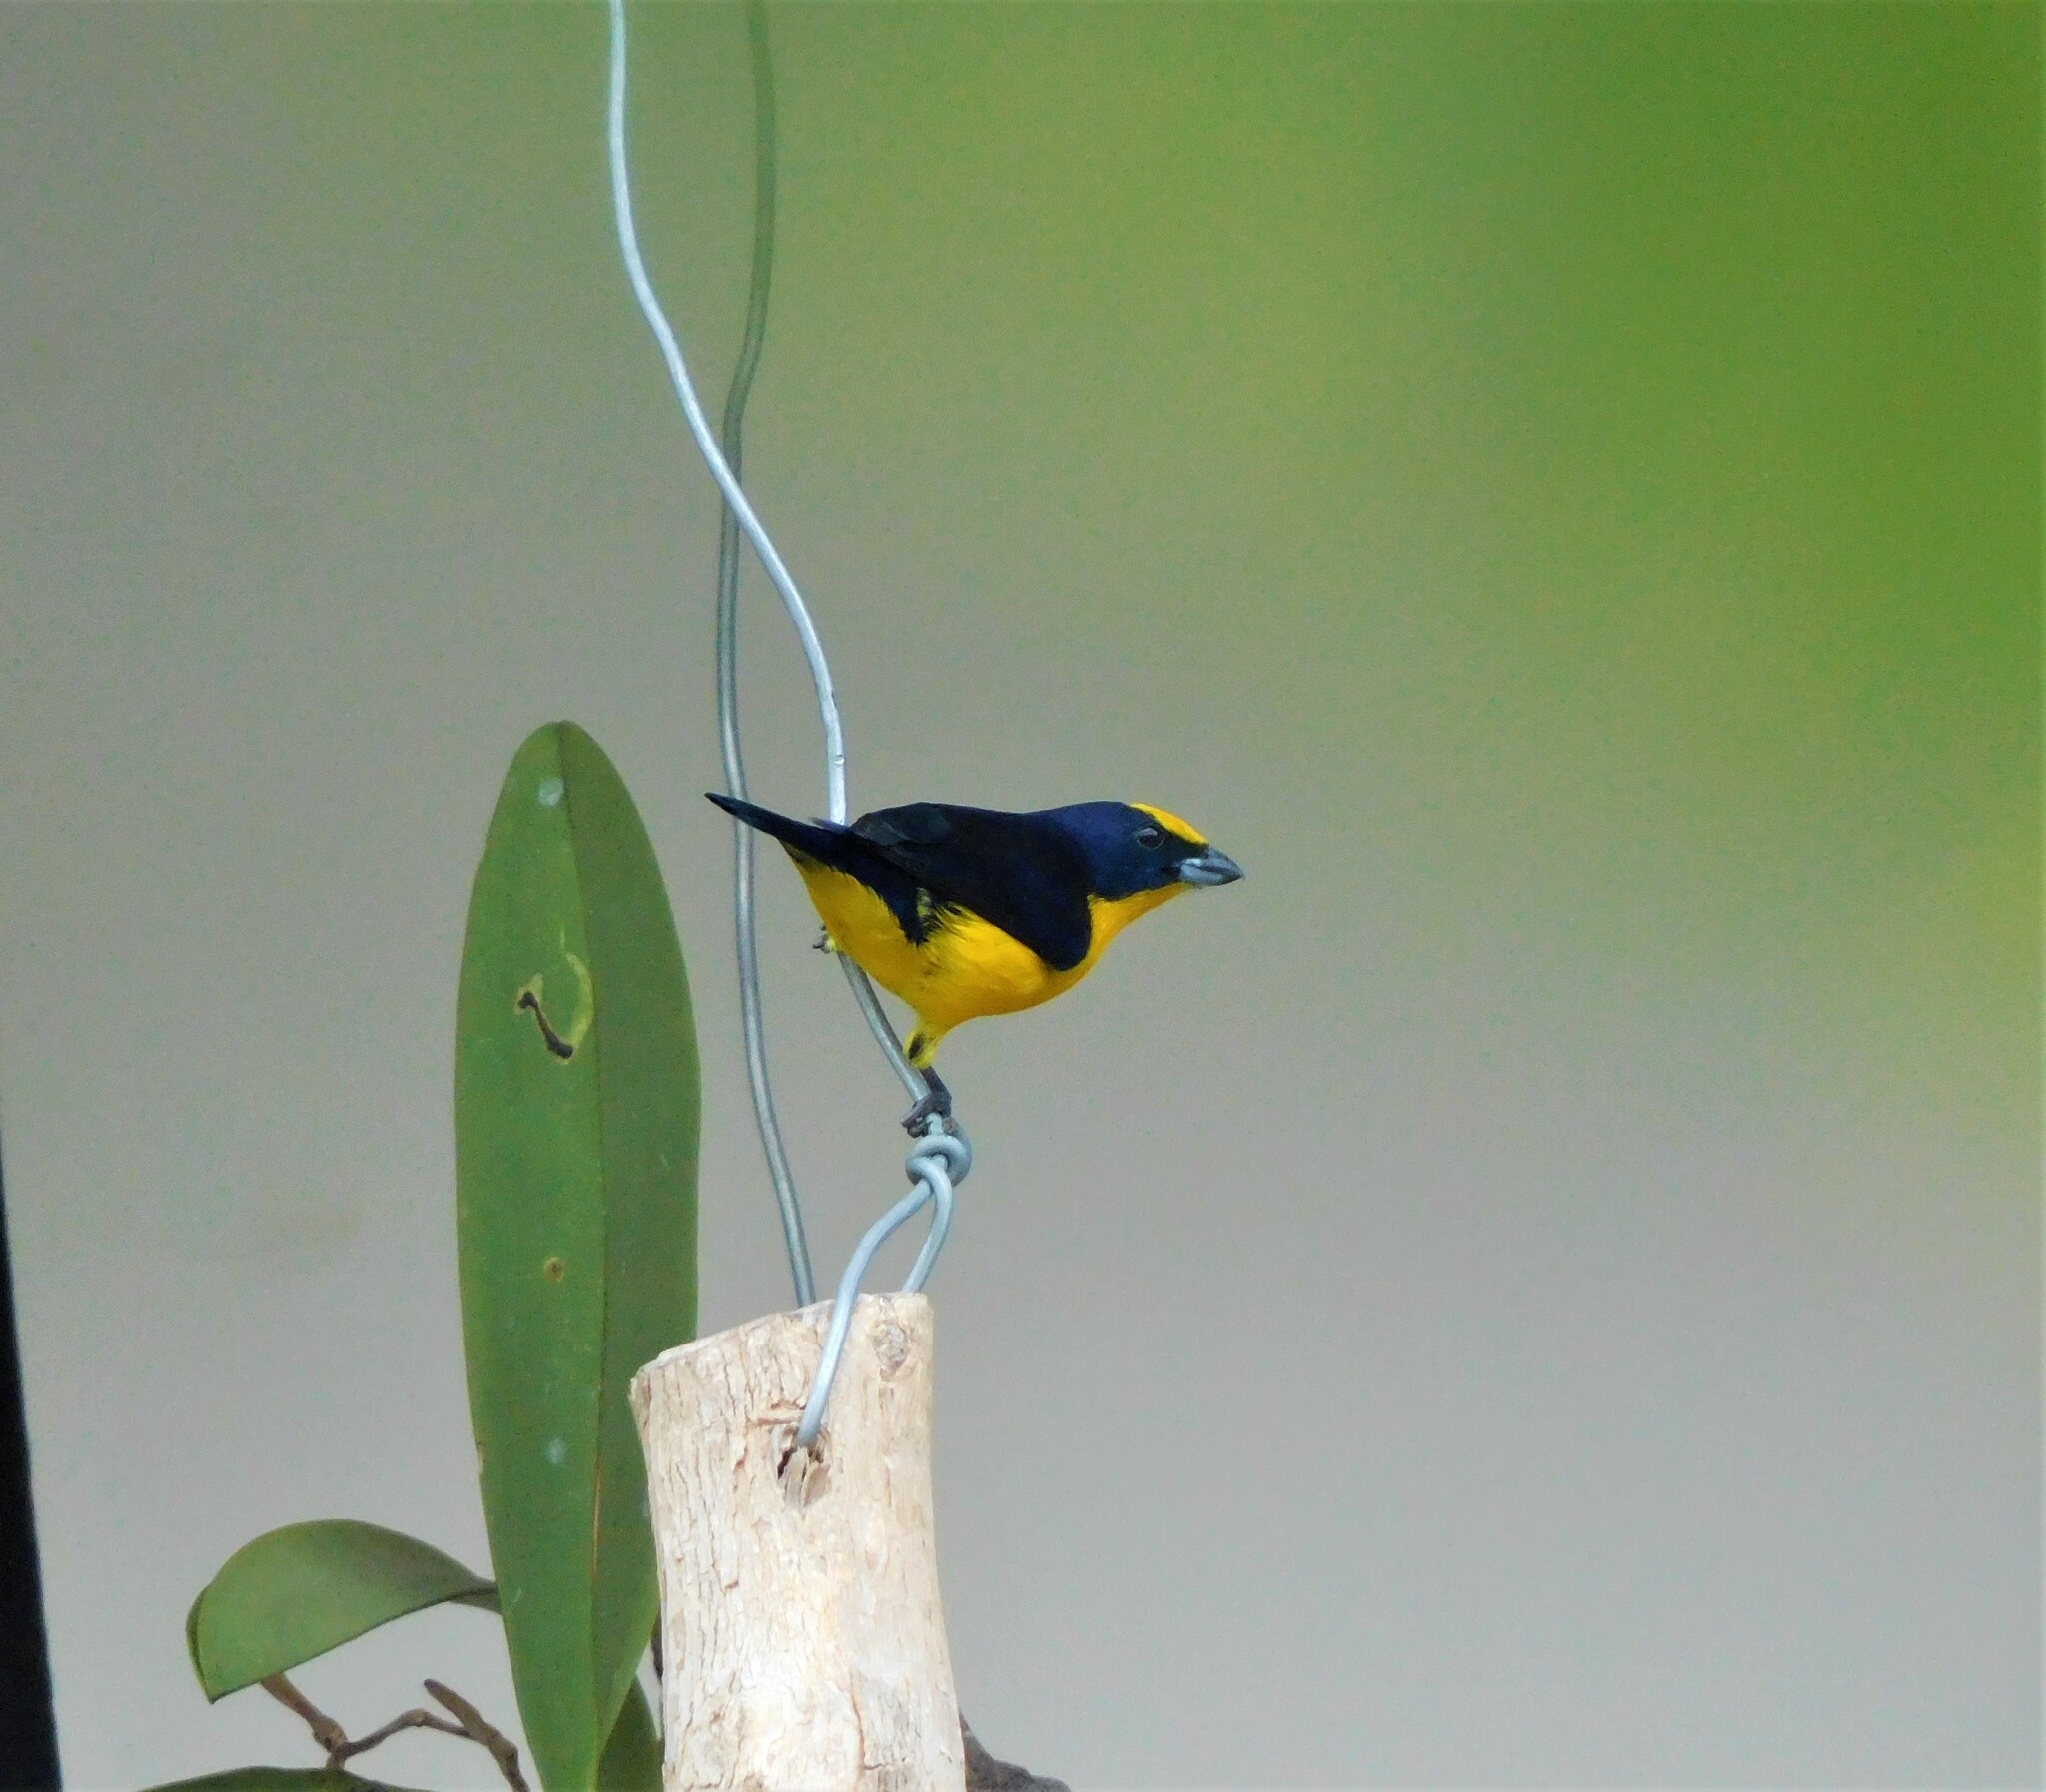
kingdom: Animalia
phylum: Chordata
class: Aves
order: Passeriformes
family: Fringillidae
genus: Euphonia
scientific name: Euphonia laniirostris
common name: Thick-billed euphonia
